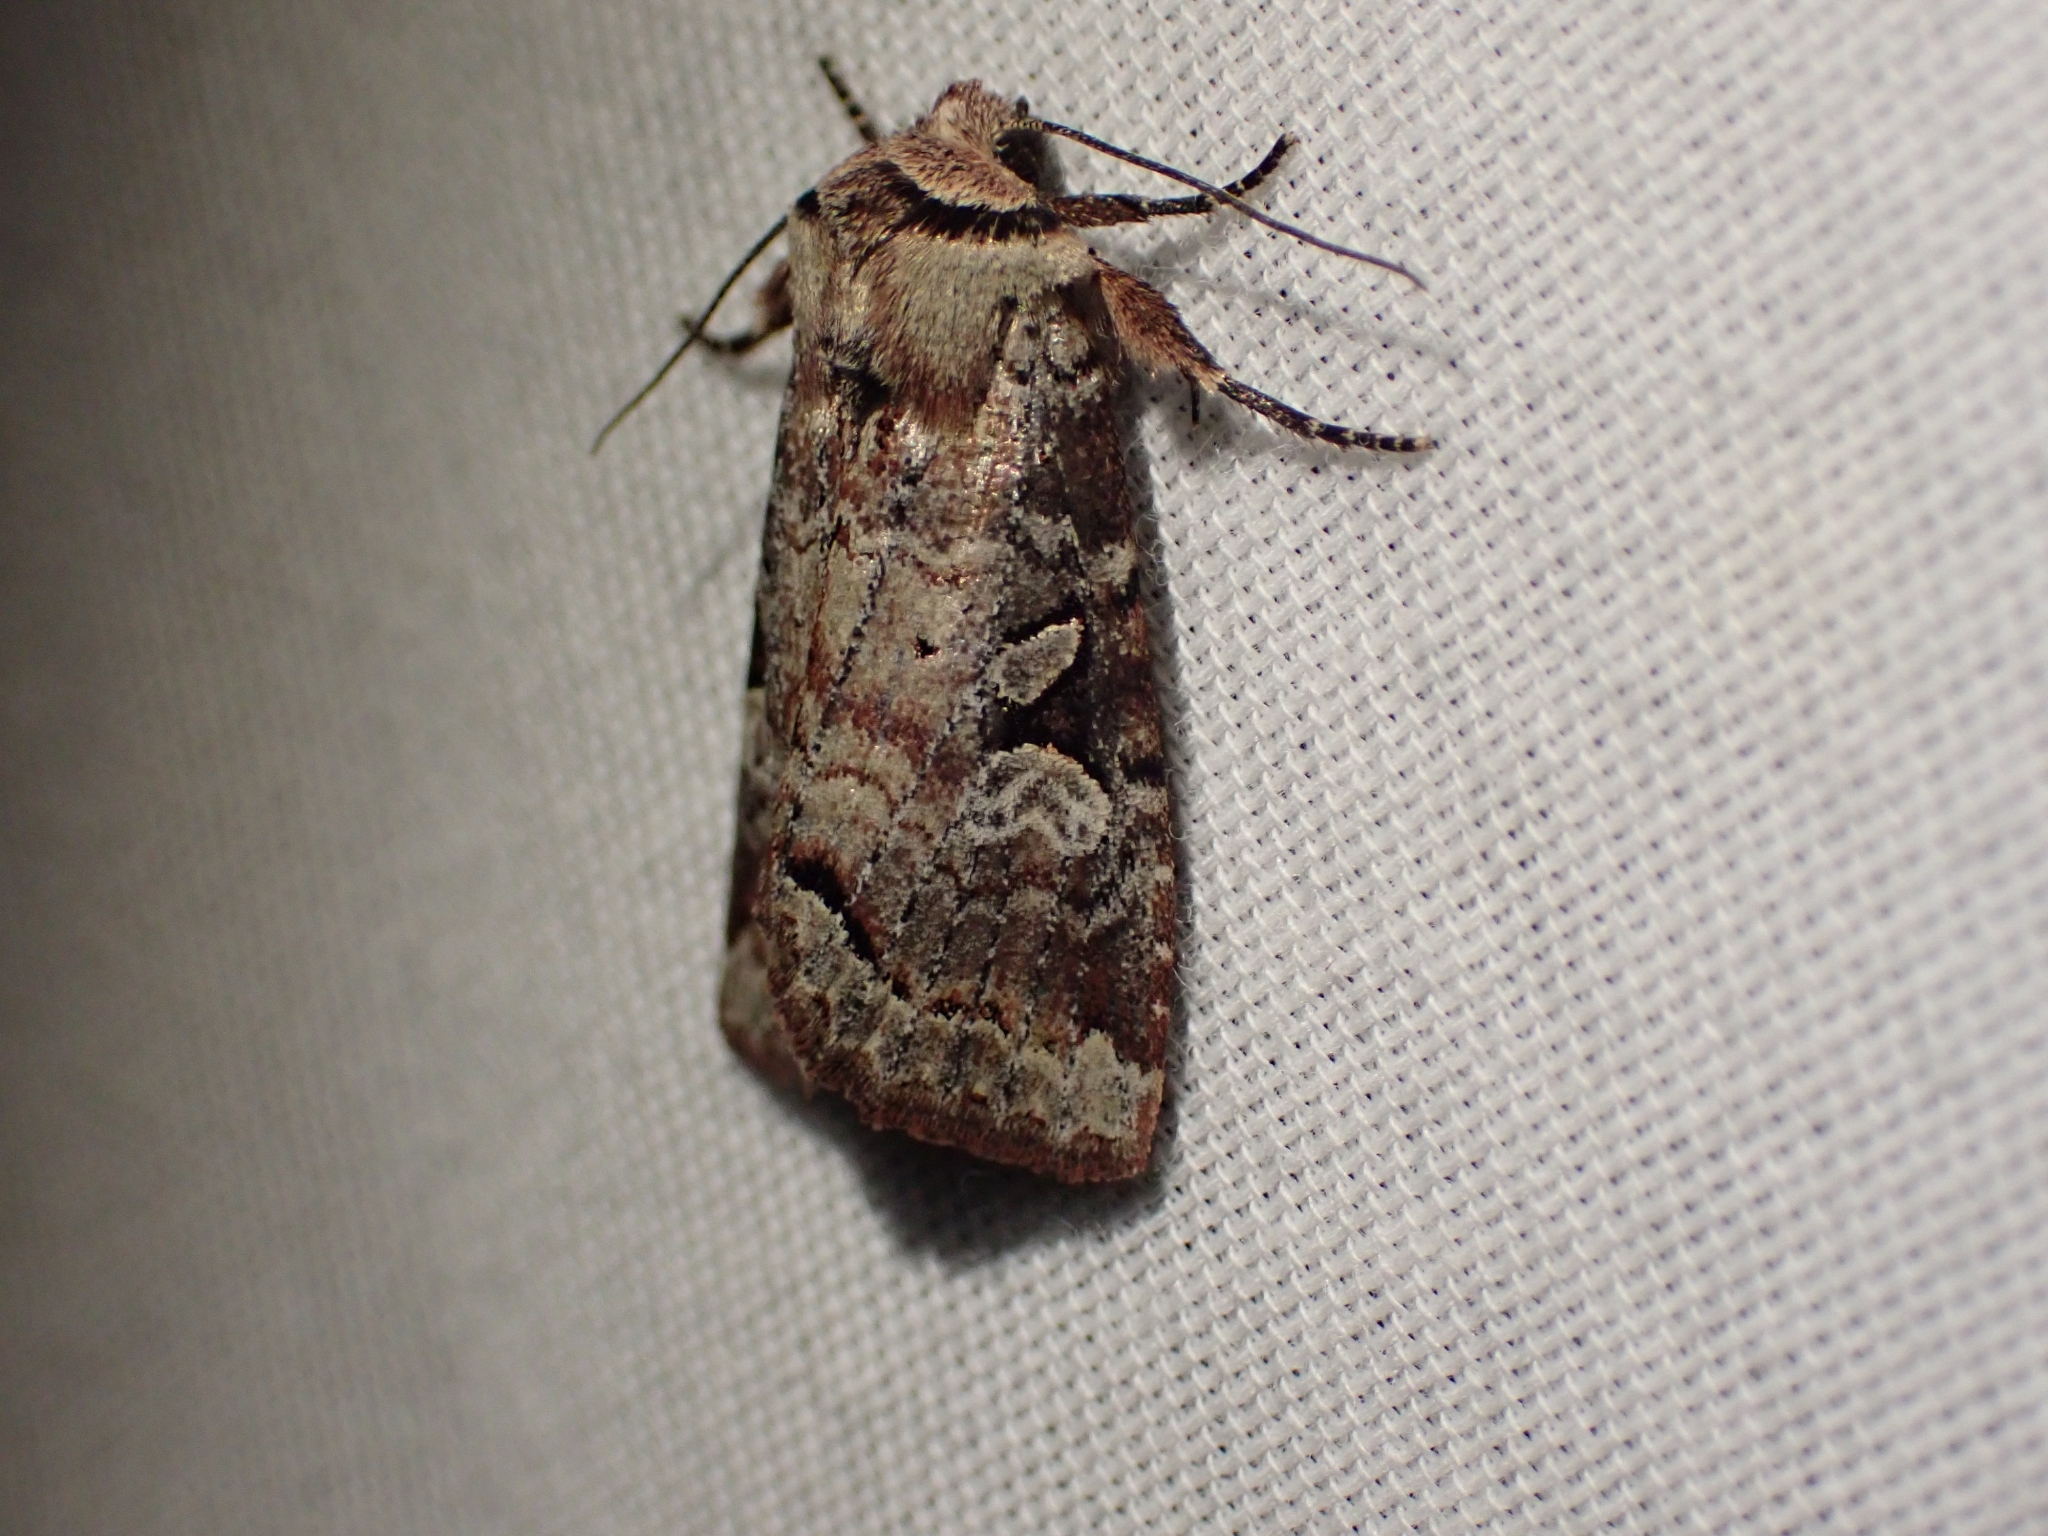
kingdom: Animalia
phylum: Arthropoda
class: Insecta
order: Lepidoptera
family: Noctuidae
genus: Hillia
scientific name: Hillia iris
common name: Iris rover moth
